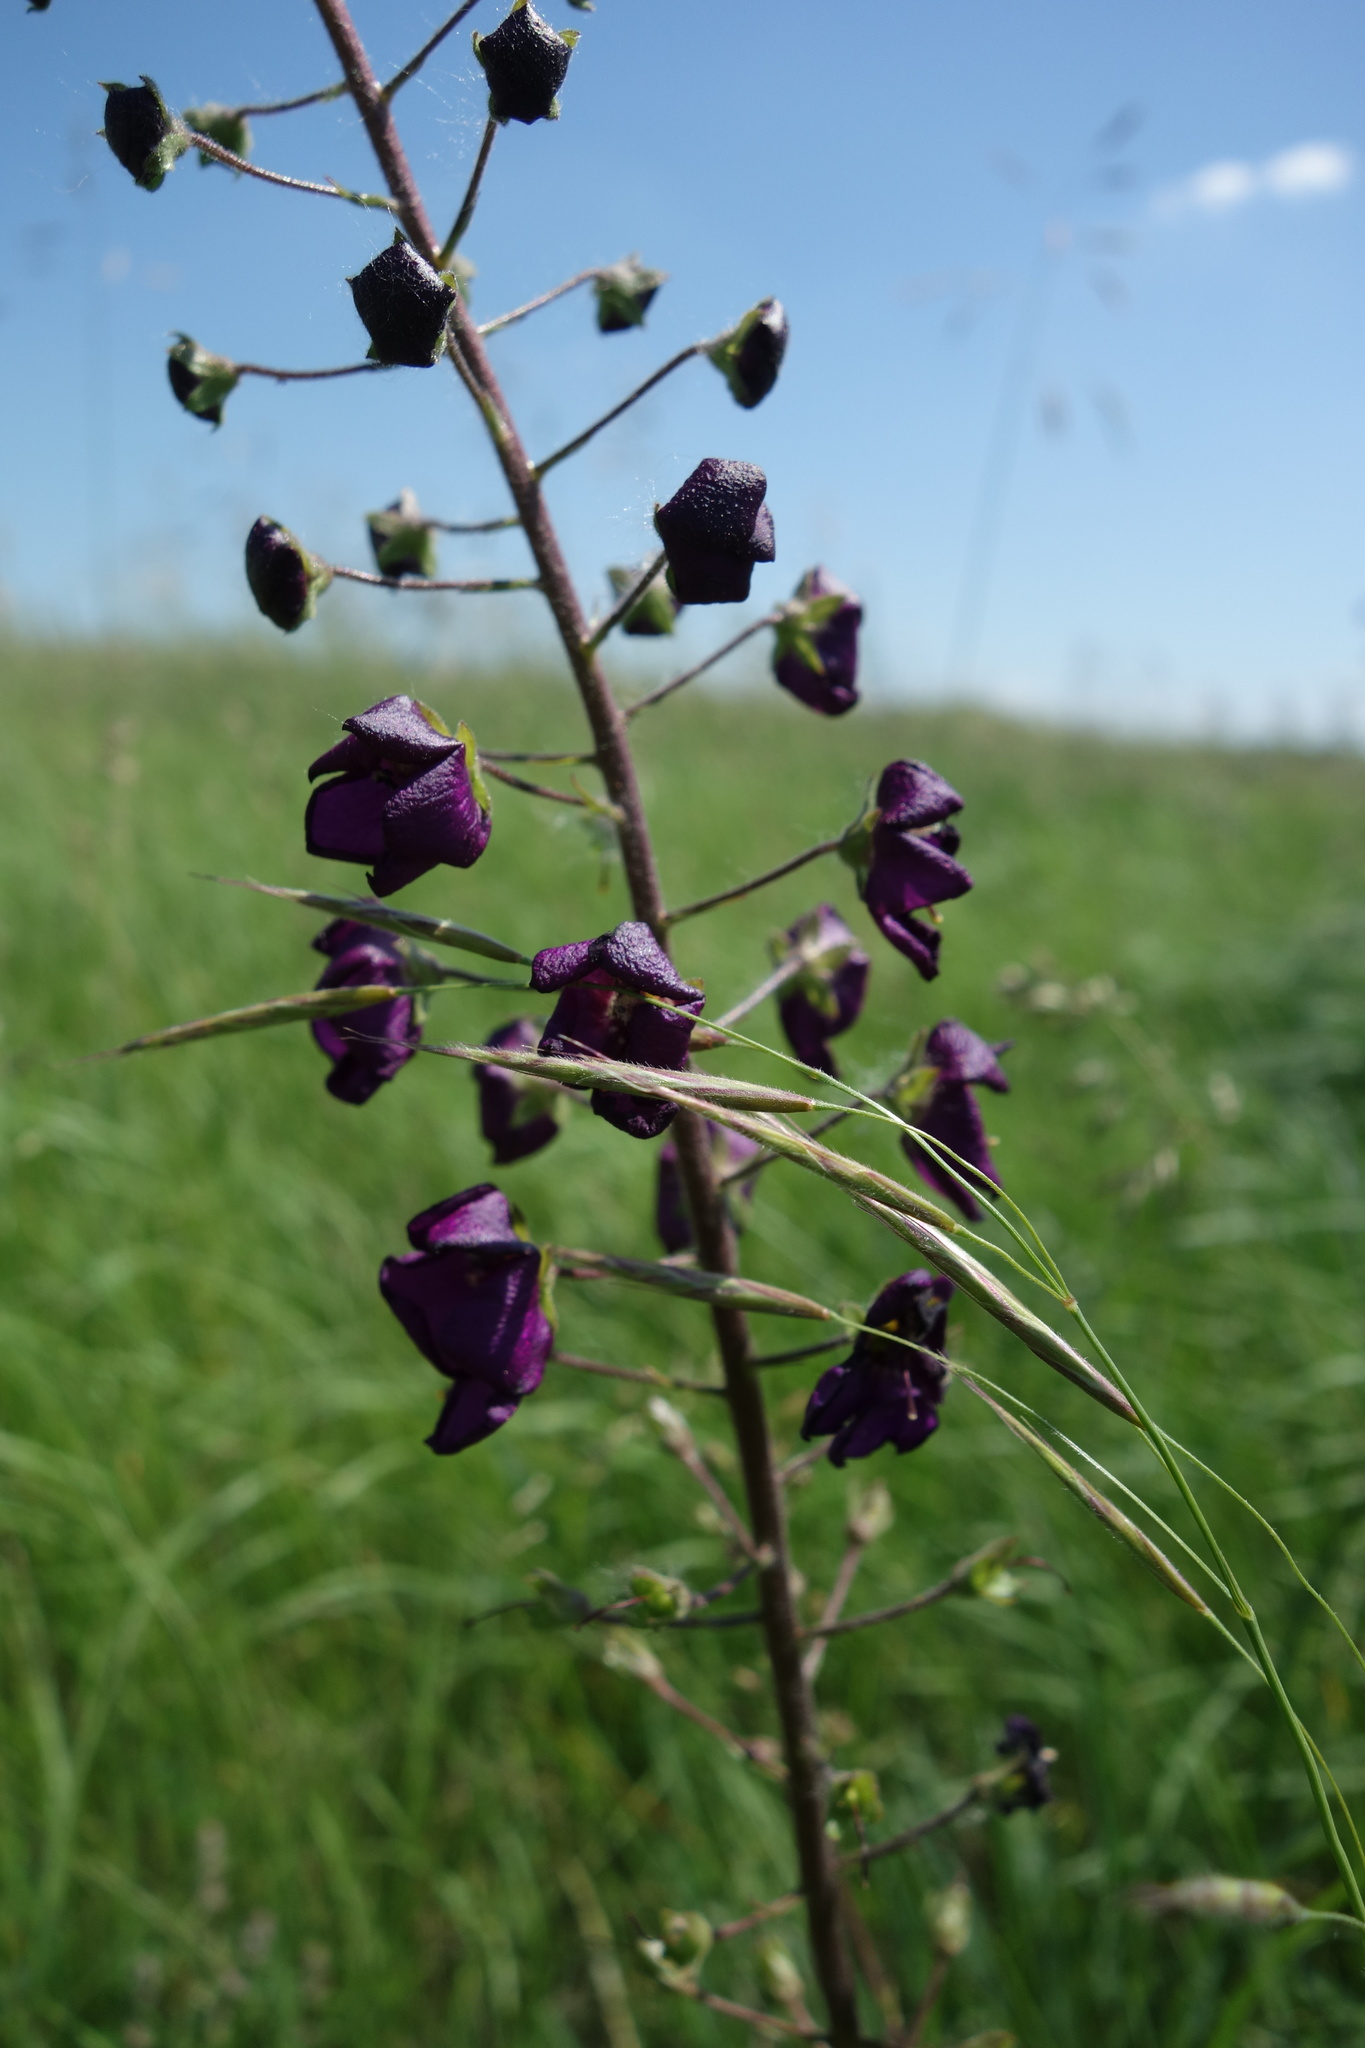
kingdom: Plantae
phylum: Tracheophyta
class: Magnoliopsida
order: Lamiales
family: Scrophulariaceae
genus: Verbascum
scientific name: Verbascum phoeniceum
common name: Purple mullein
